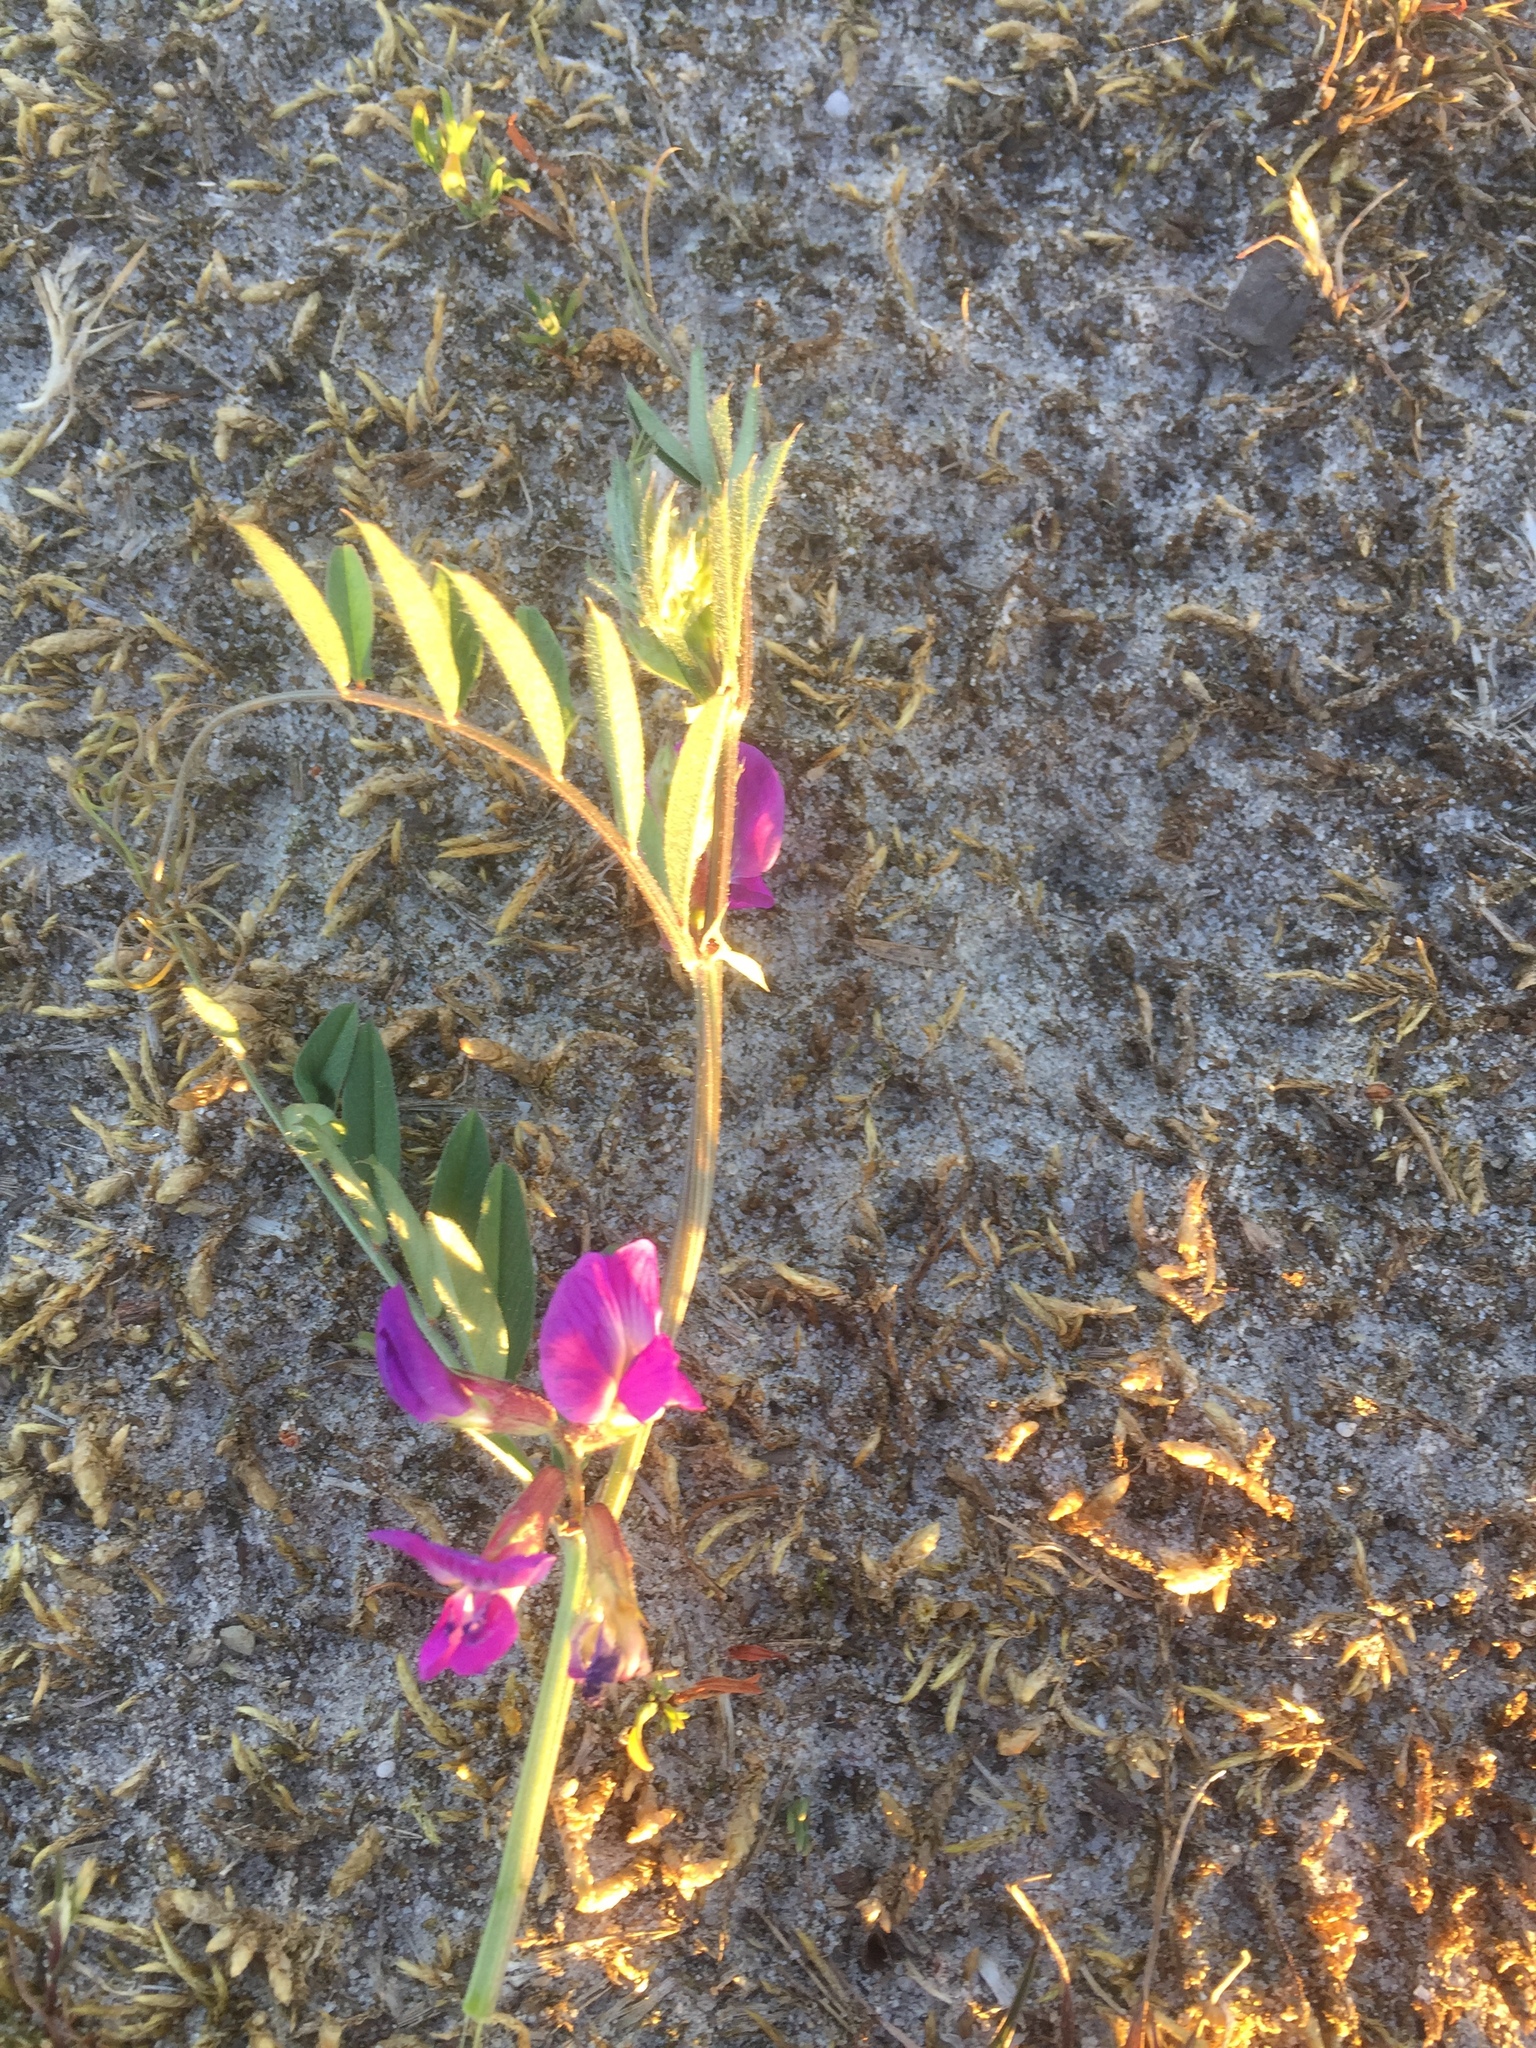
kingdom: Plantae
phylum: Tracheophyta
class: Magnoliopsida
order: Fabales
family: Fabaceae
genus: Vicia
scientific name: Vicia sativa
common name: Garden vetch
